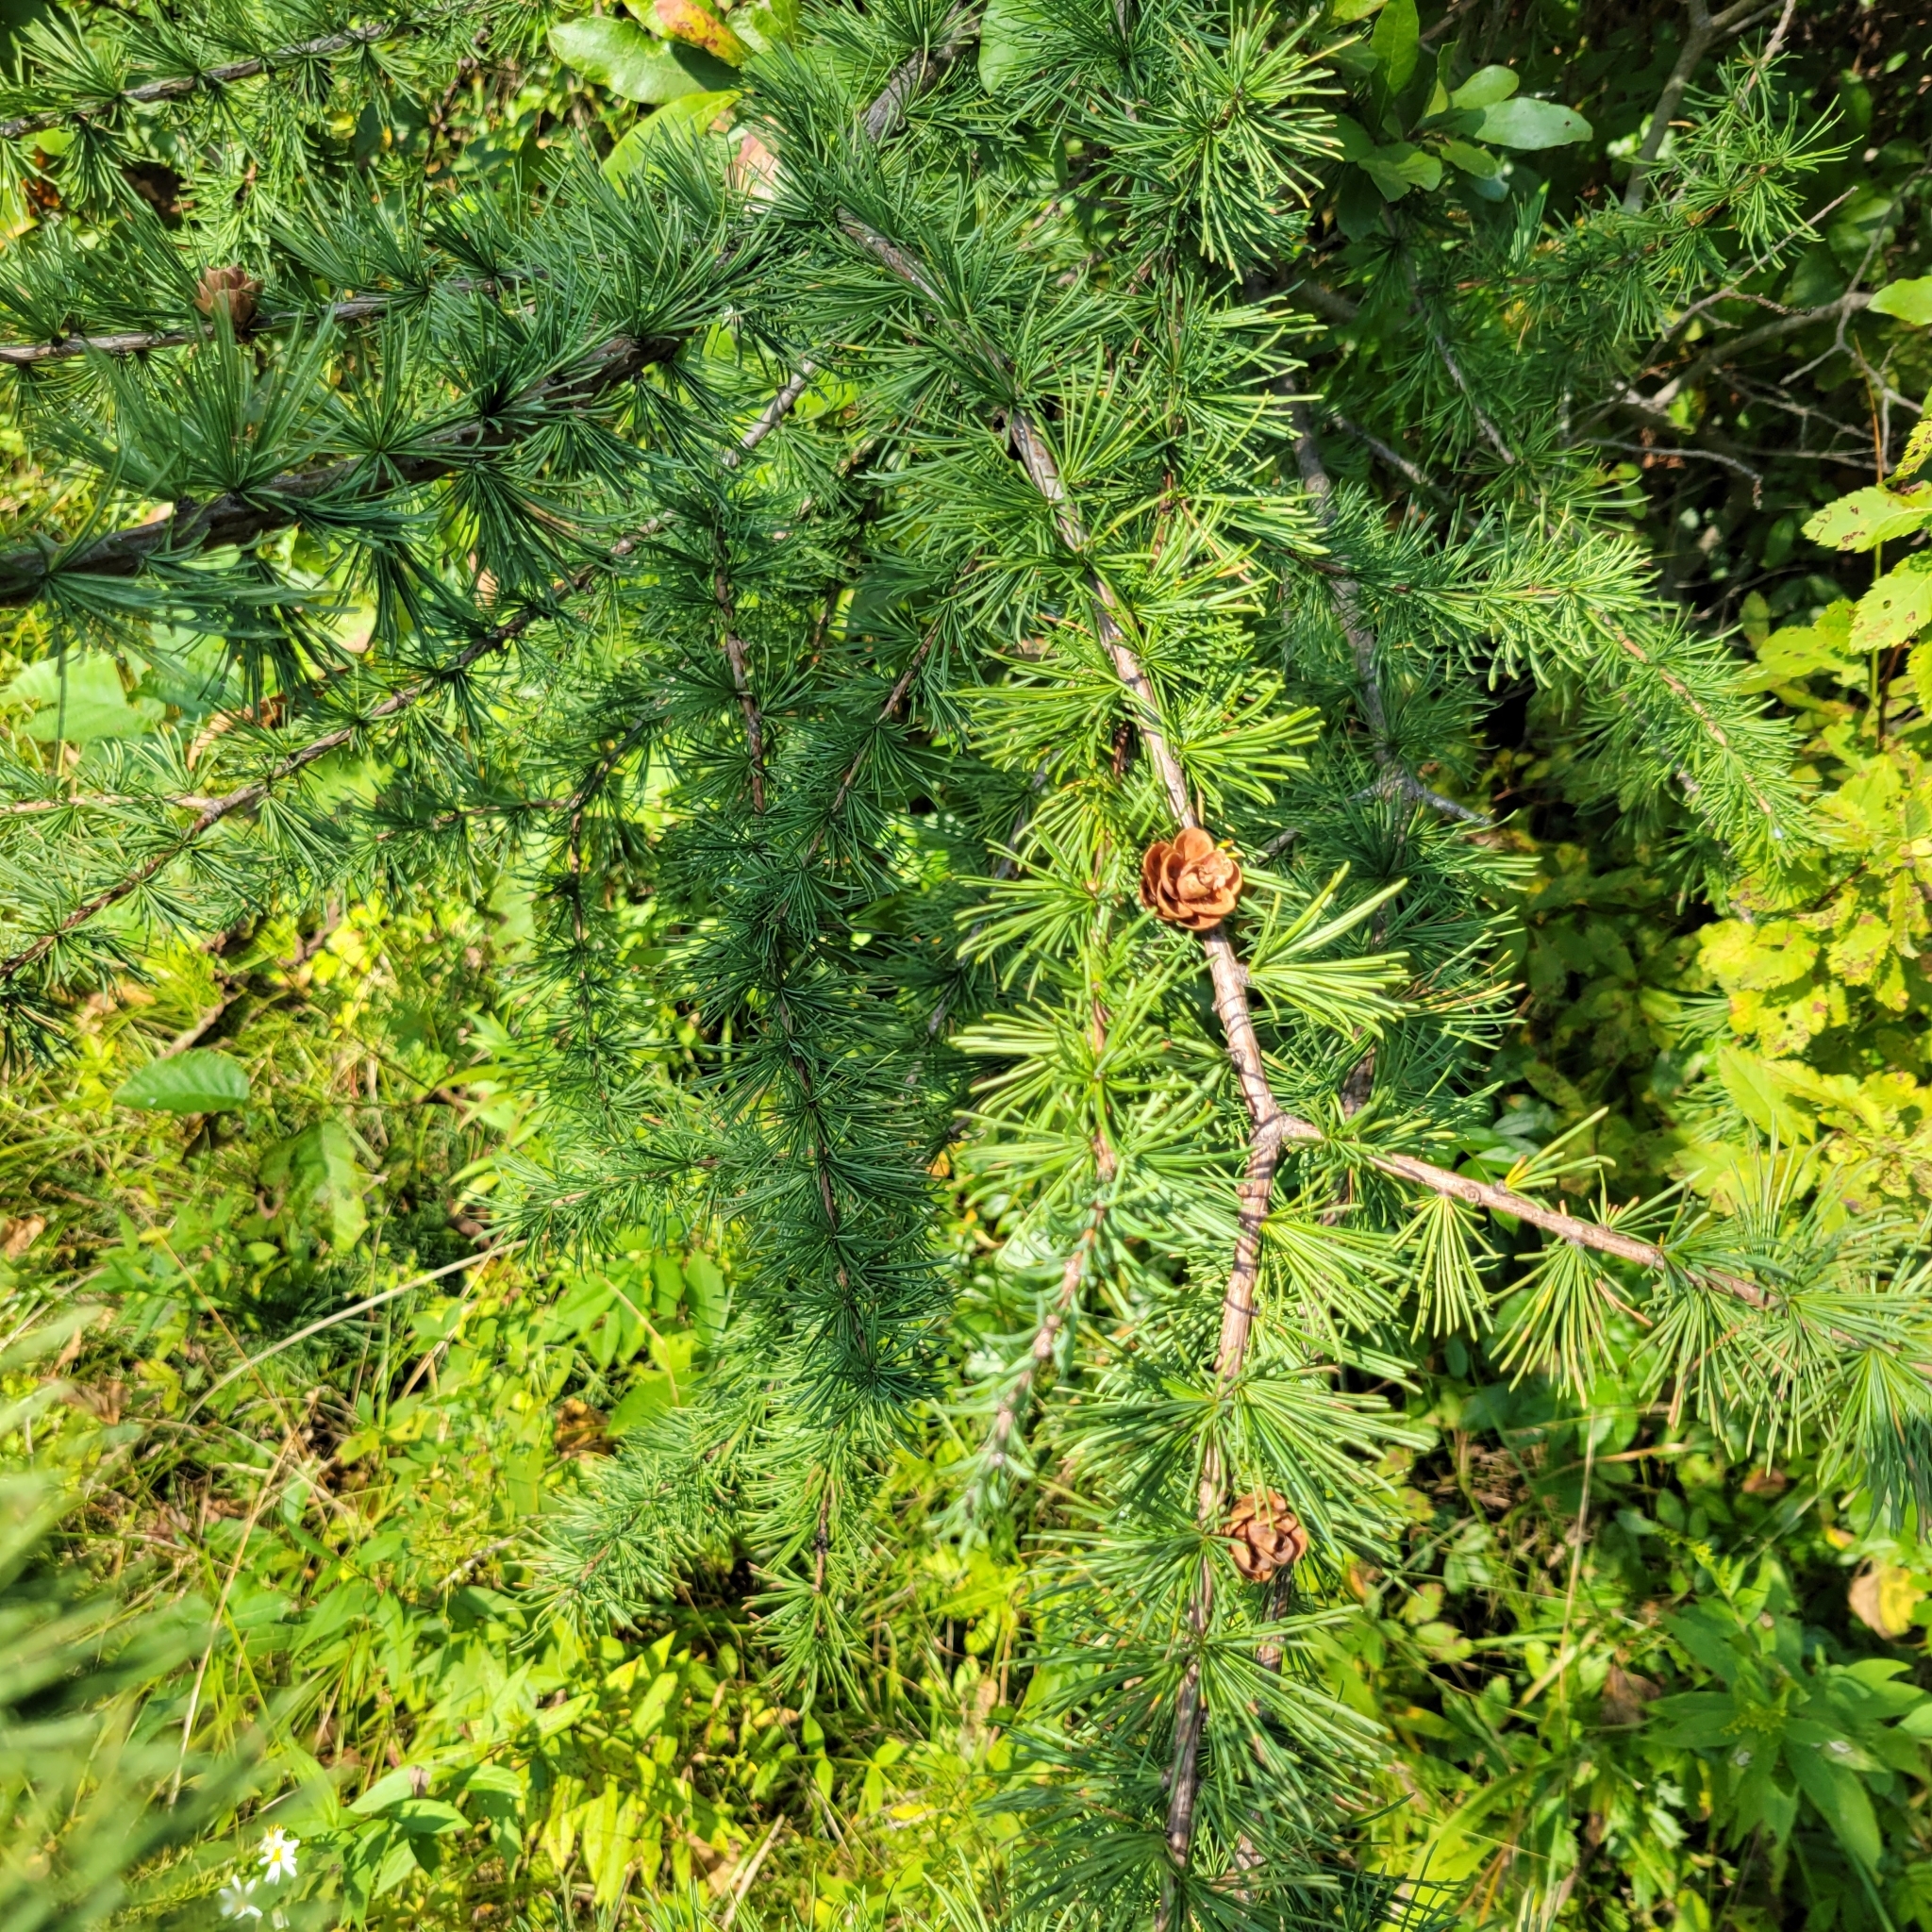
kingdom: Plantae
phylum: Tracheophyta
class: Pinopsida
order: Pinales
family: Pinaceae
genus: Larix
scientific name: Larix laricina
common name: American larch
